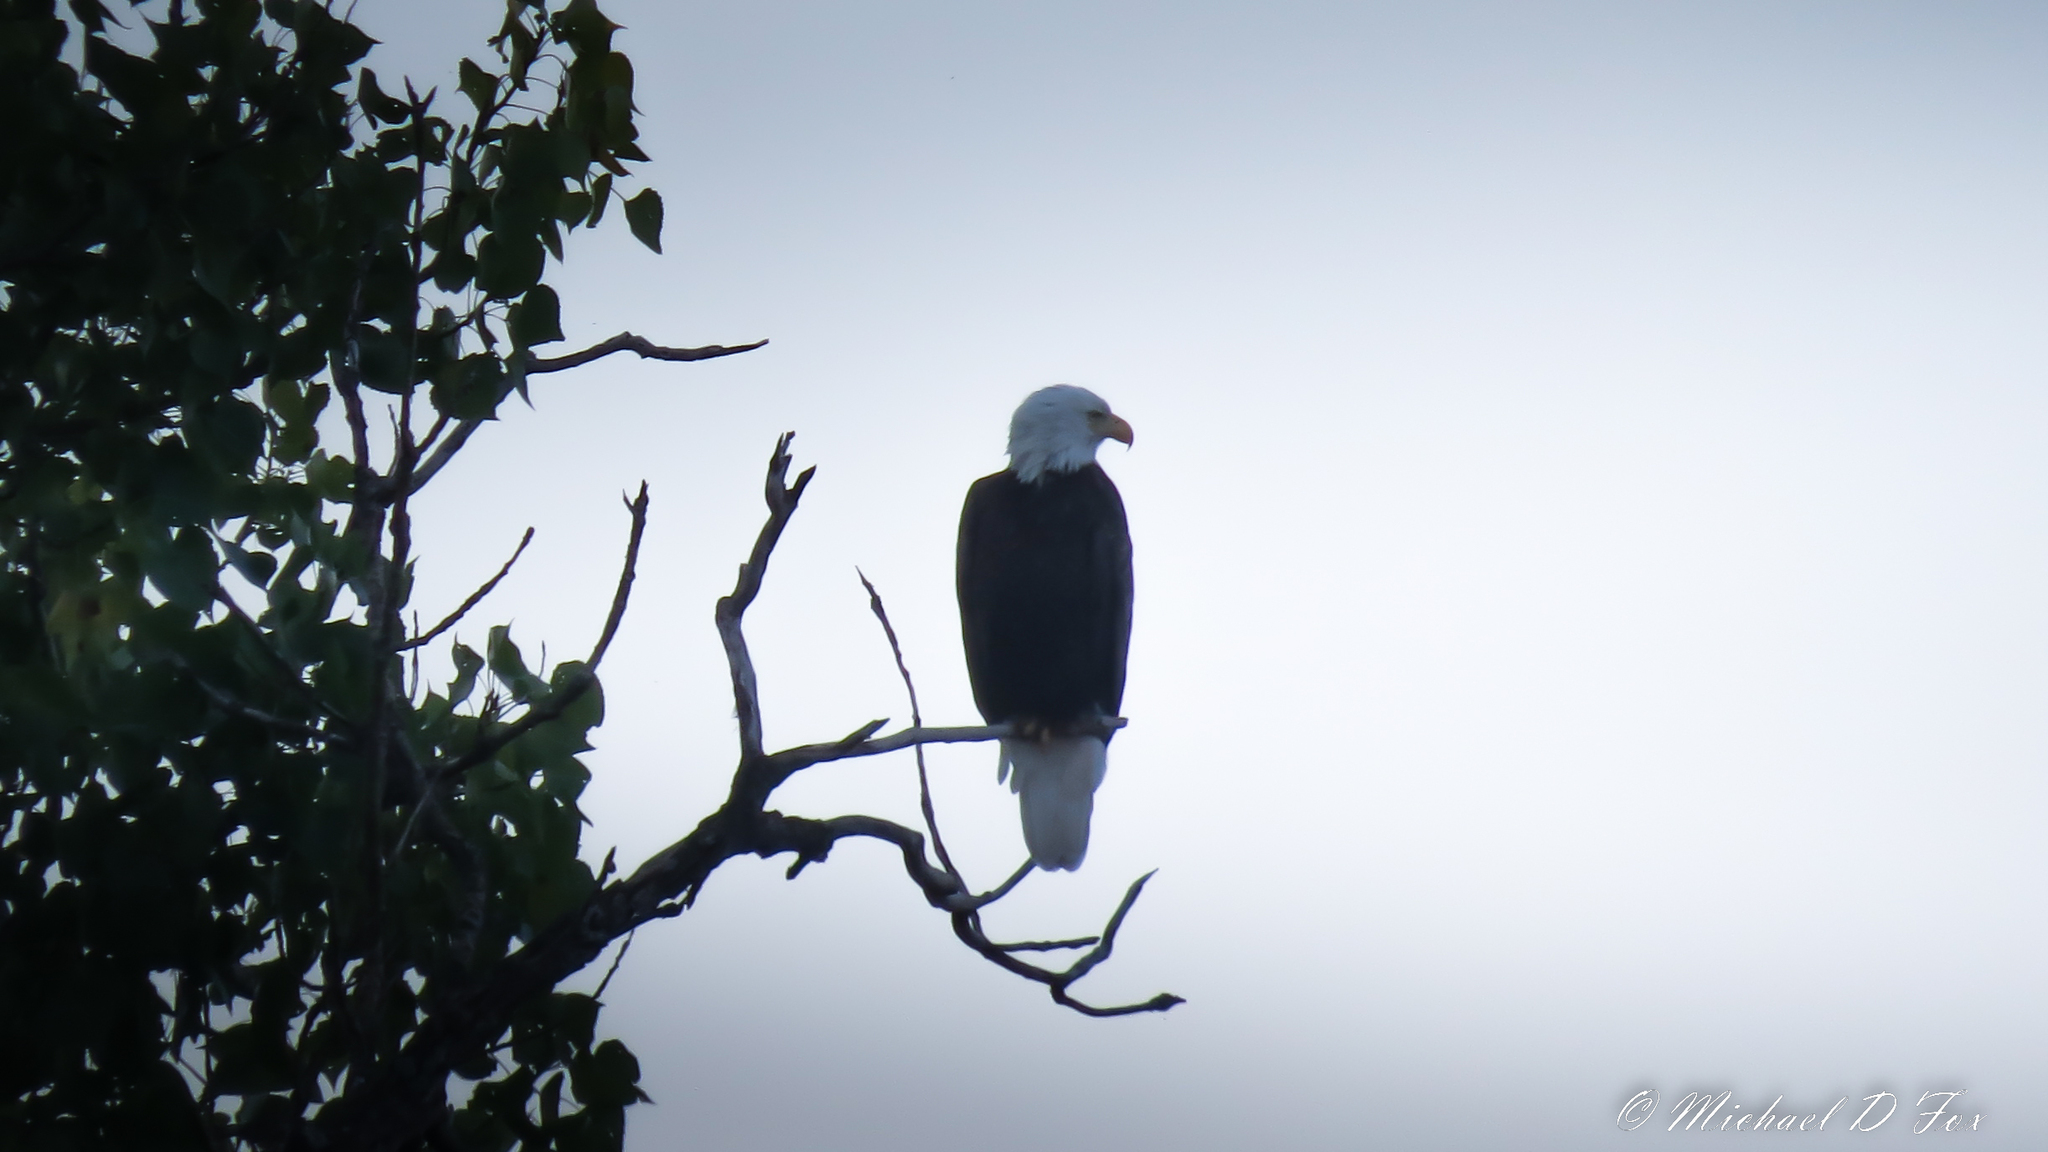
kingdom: Animalia
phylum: Chordata
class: Aves
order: Accipitriformes
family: Accipitridae
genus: Haliaeetus
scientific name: Haliaeetus leucocephalus
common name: Bald eagle
